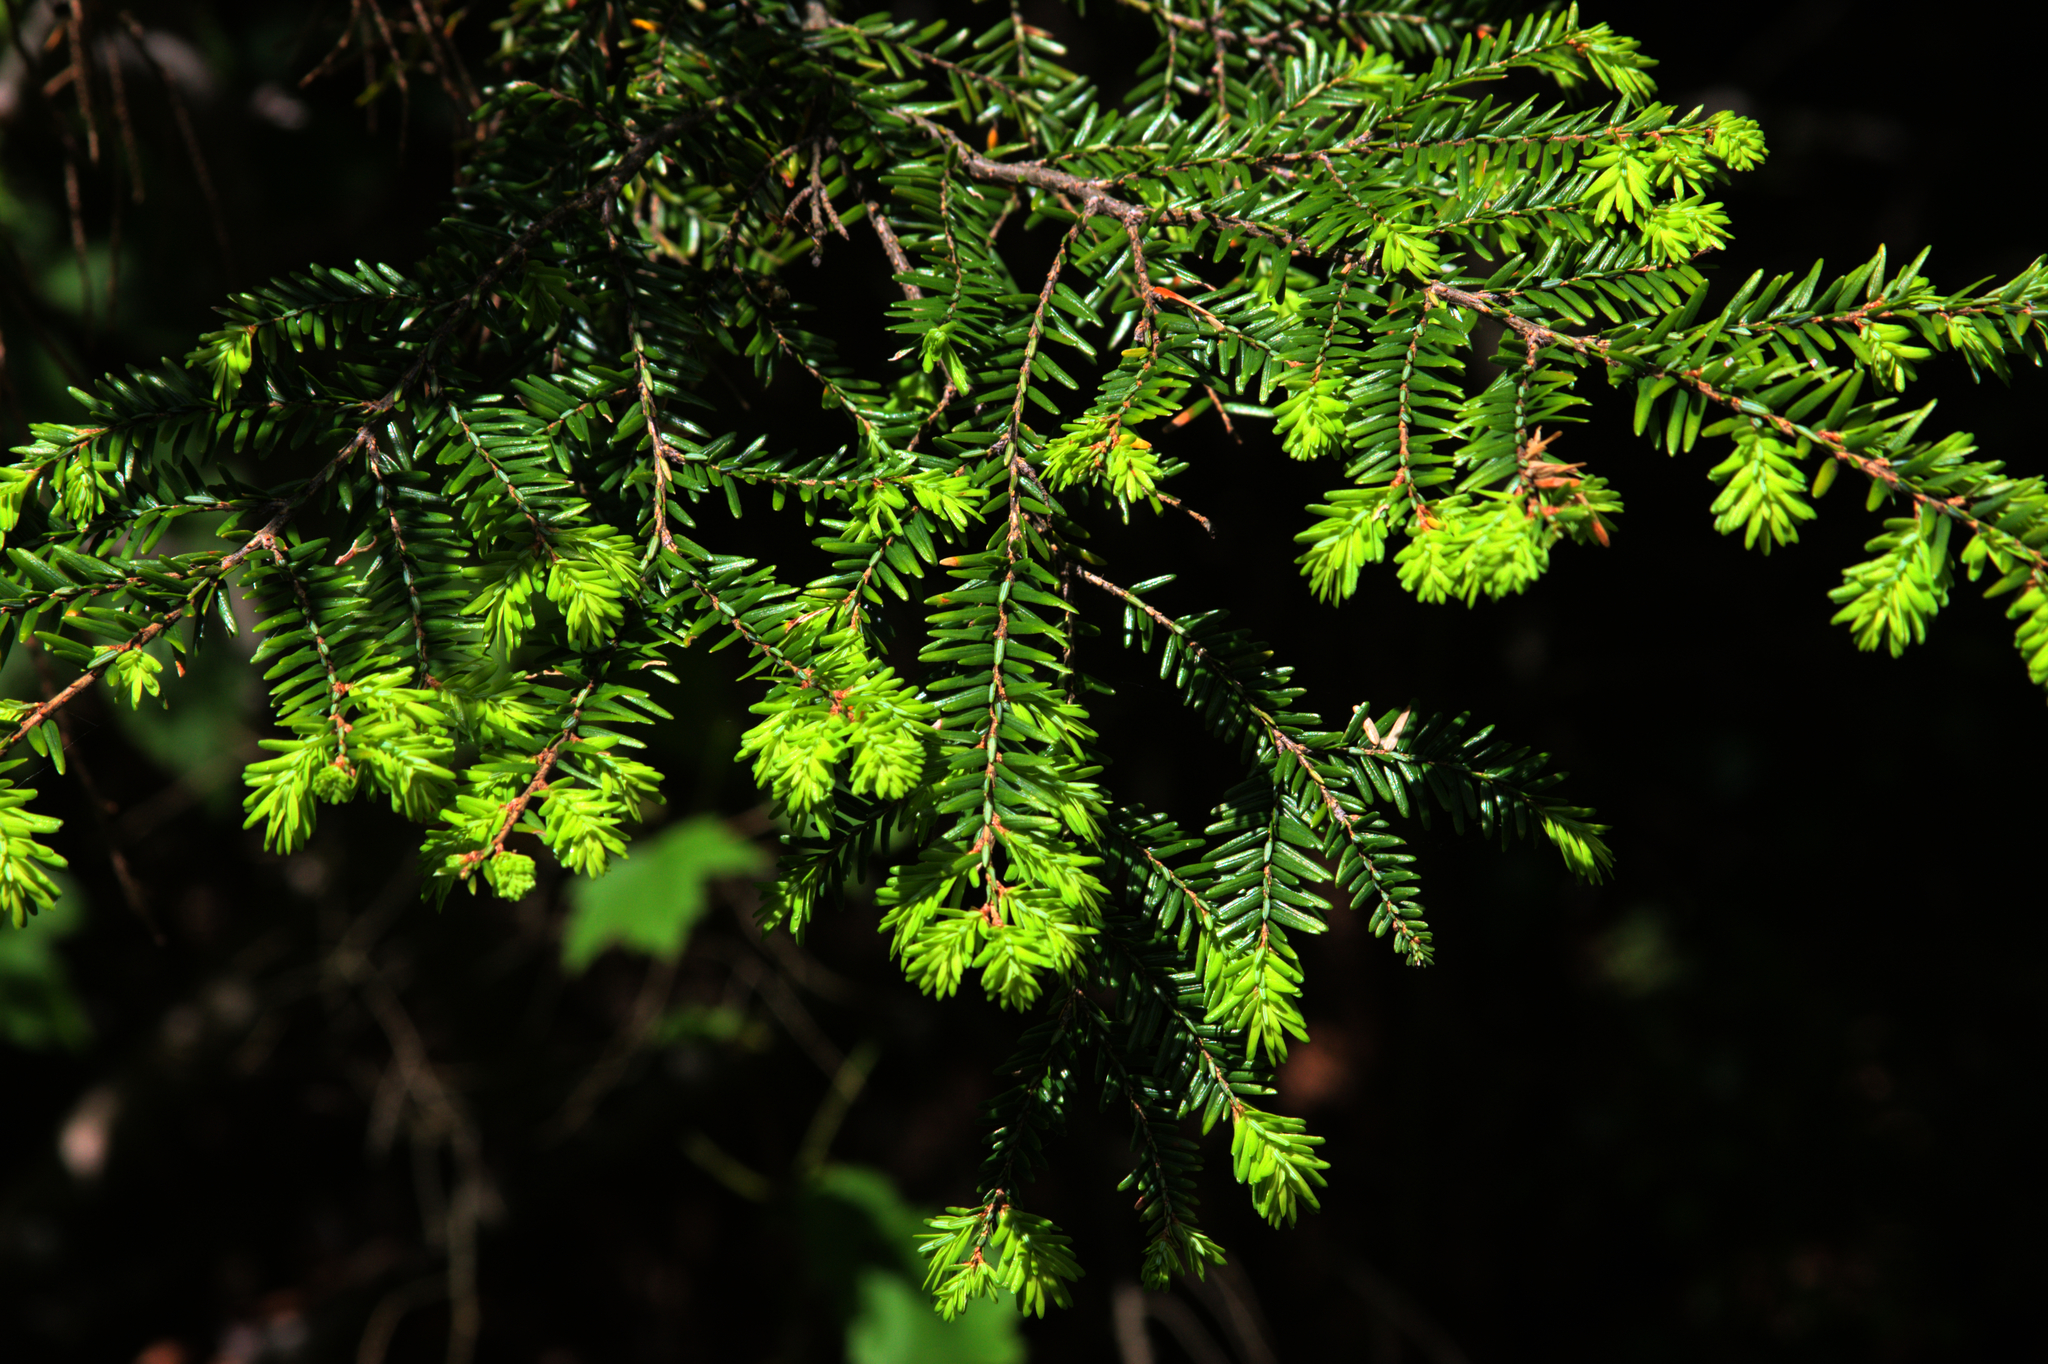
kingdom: Plantae
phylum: Tracheophyta
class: Pinopsida
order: Pinales
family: Pinaceae
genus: Tsuga
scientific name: Tsuga canadensis
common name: Eastern hemlock
